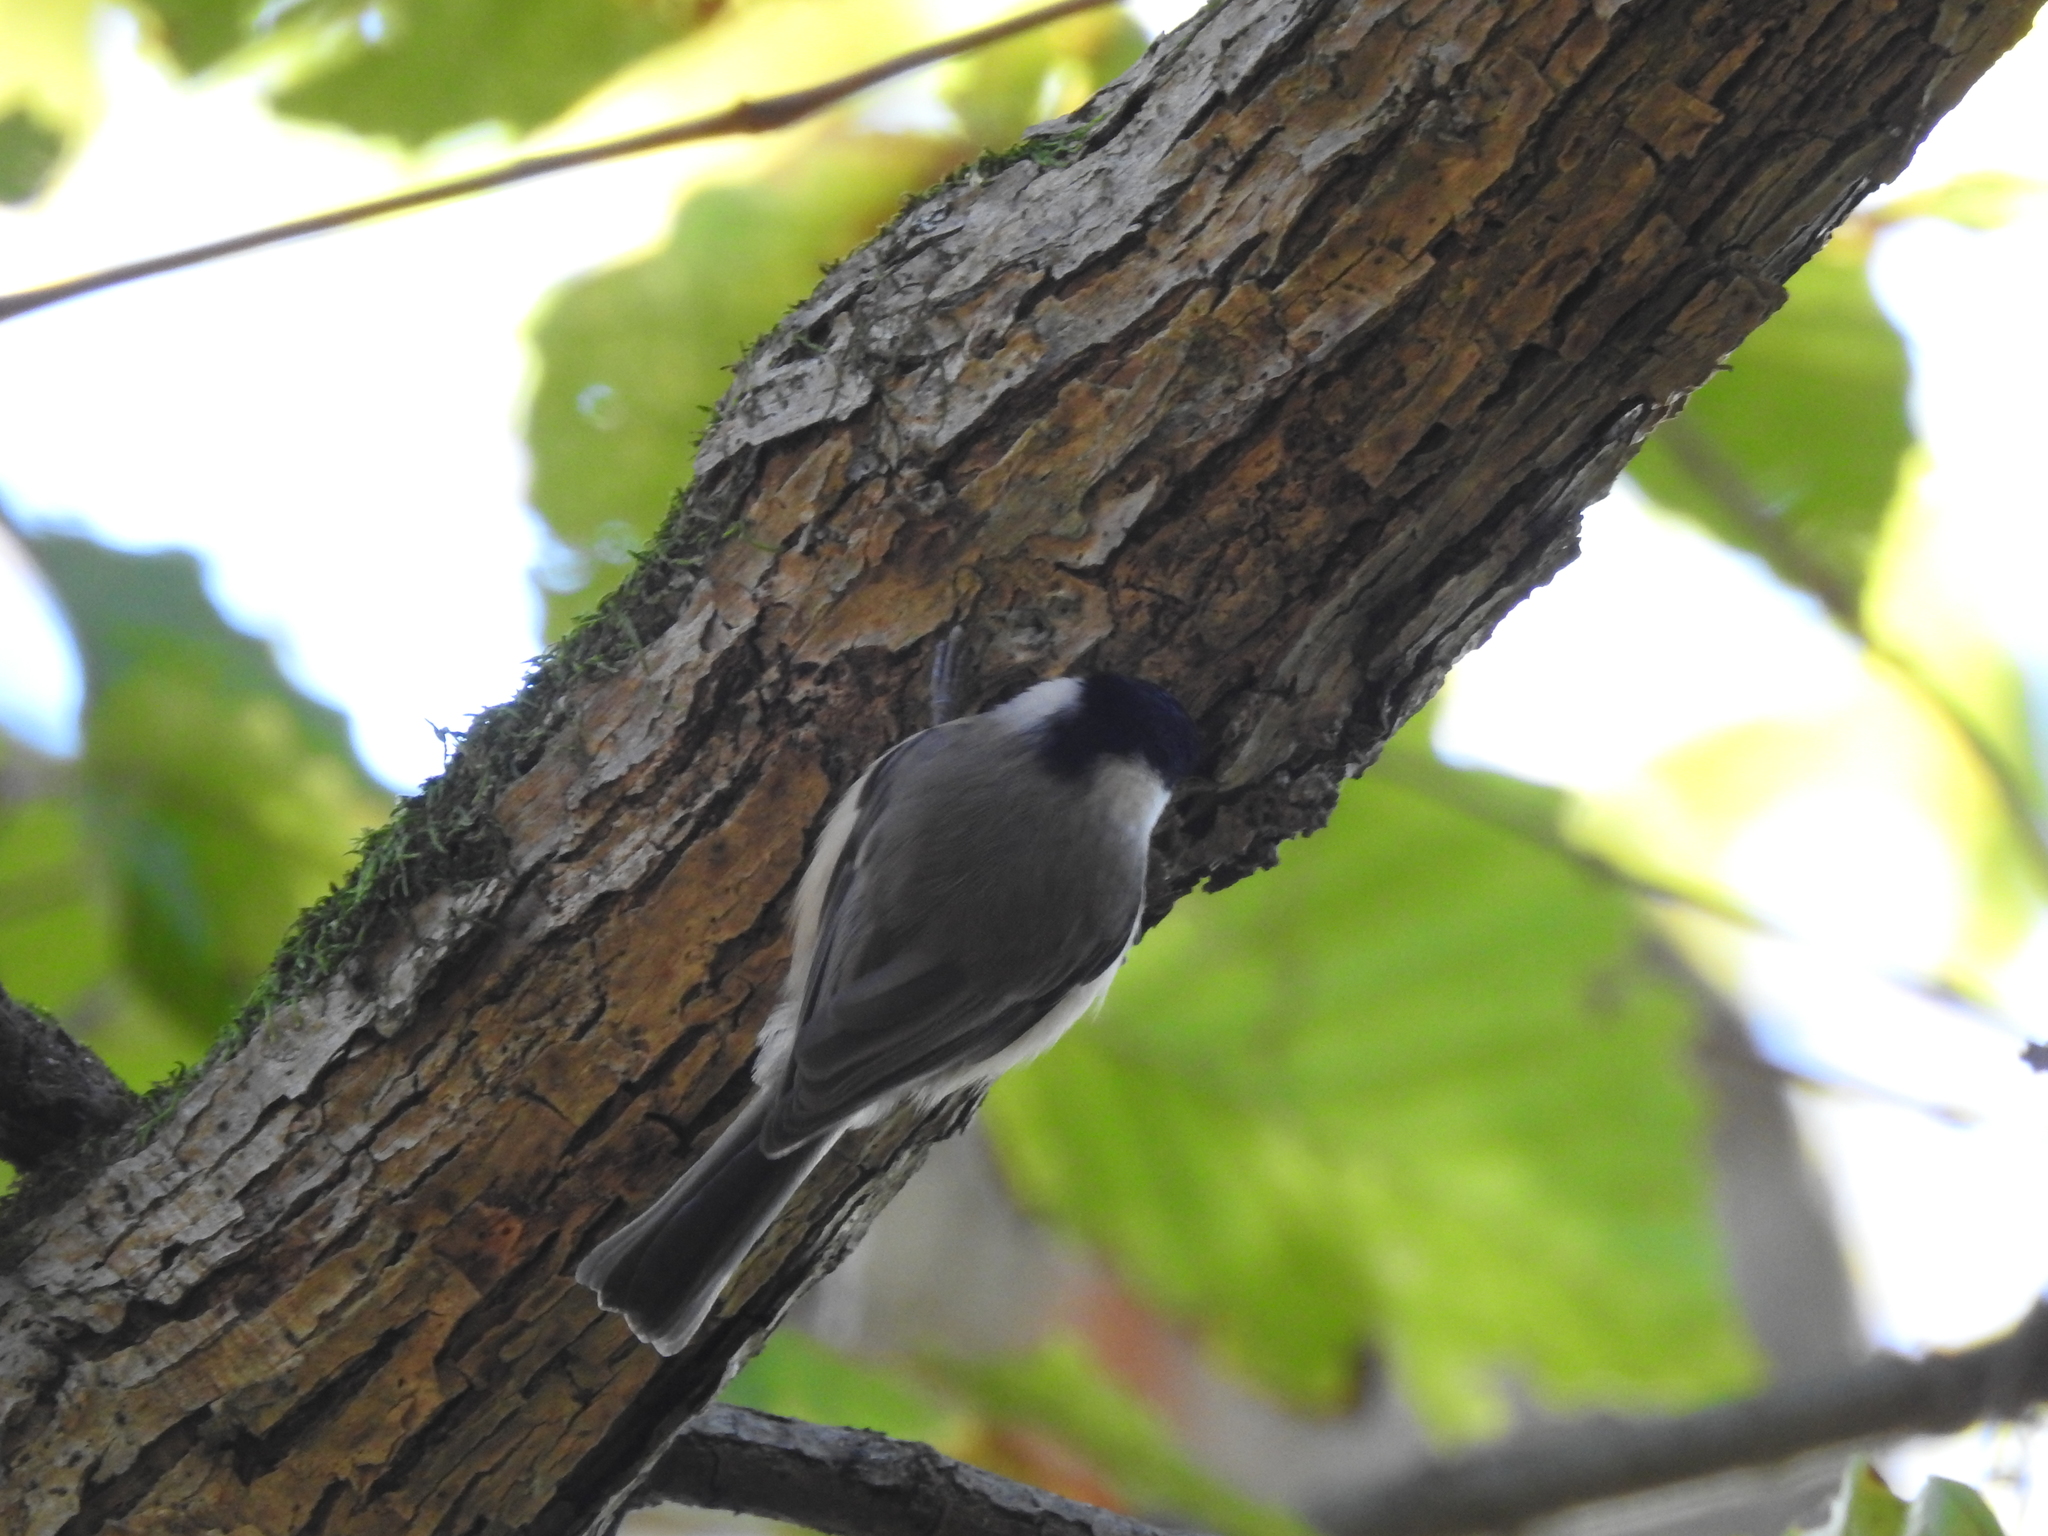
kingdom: Animalia
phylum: Chordata
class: Aves
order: Passeriformes
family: Paridae
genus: Poecile
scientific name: Poecile carolinensis
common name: Carolina chickadee
